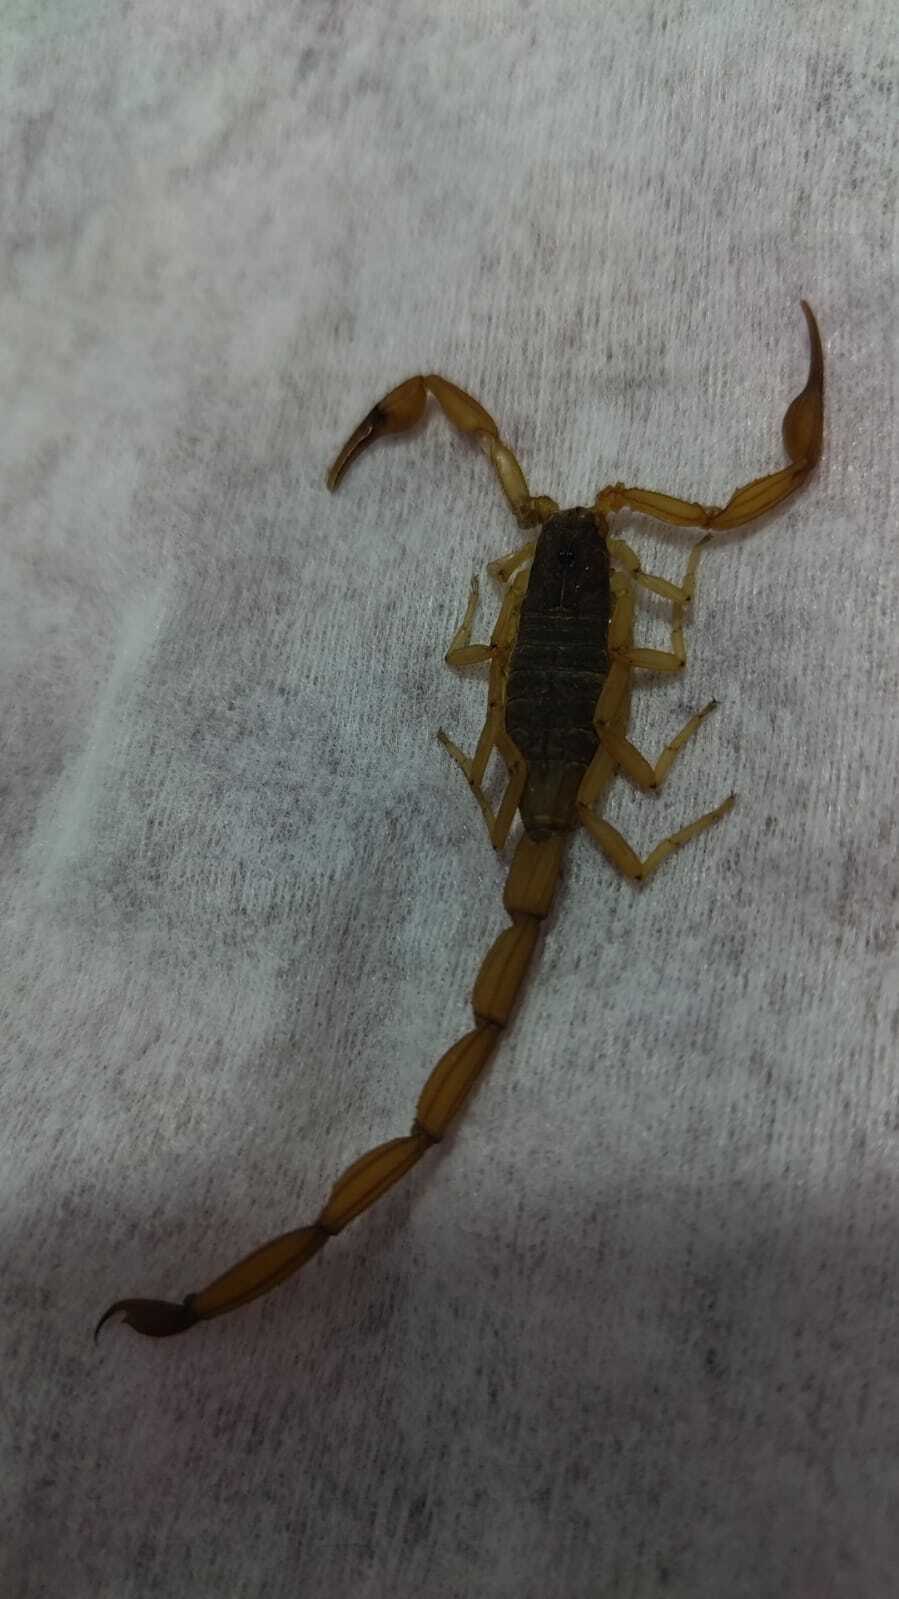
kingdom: Animalia
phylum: Arthropoda
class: Arachnida
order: Scorpiones
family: Buthidae
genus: Centruroides
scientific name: Centruroides ochraceus
